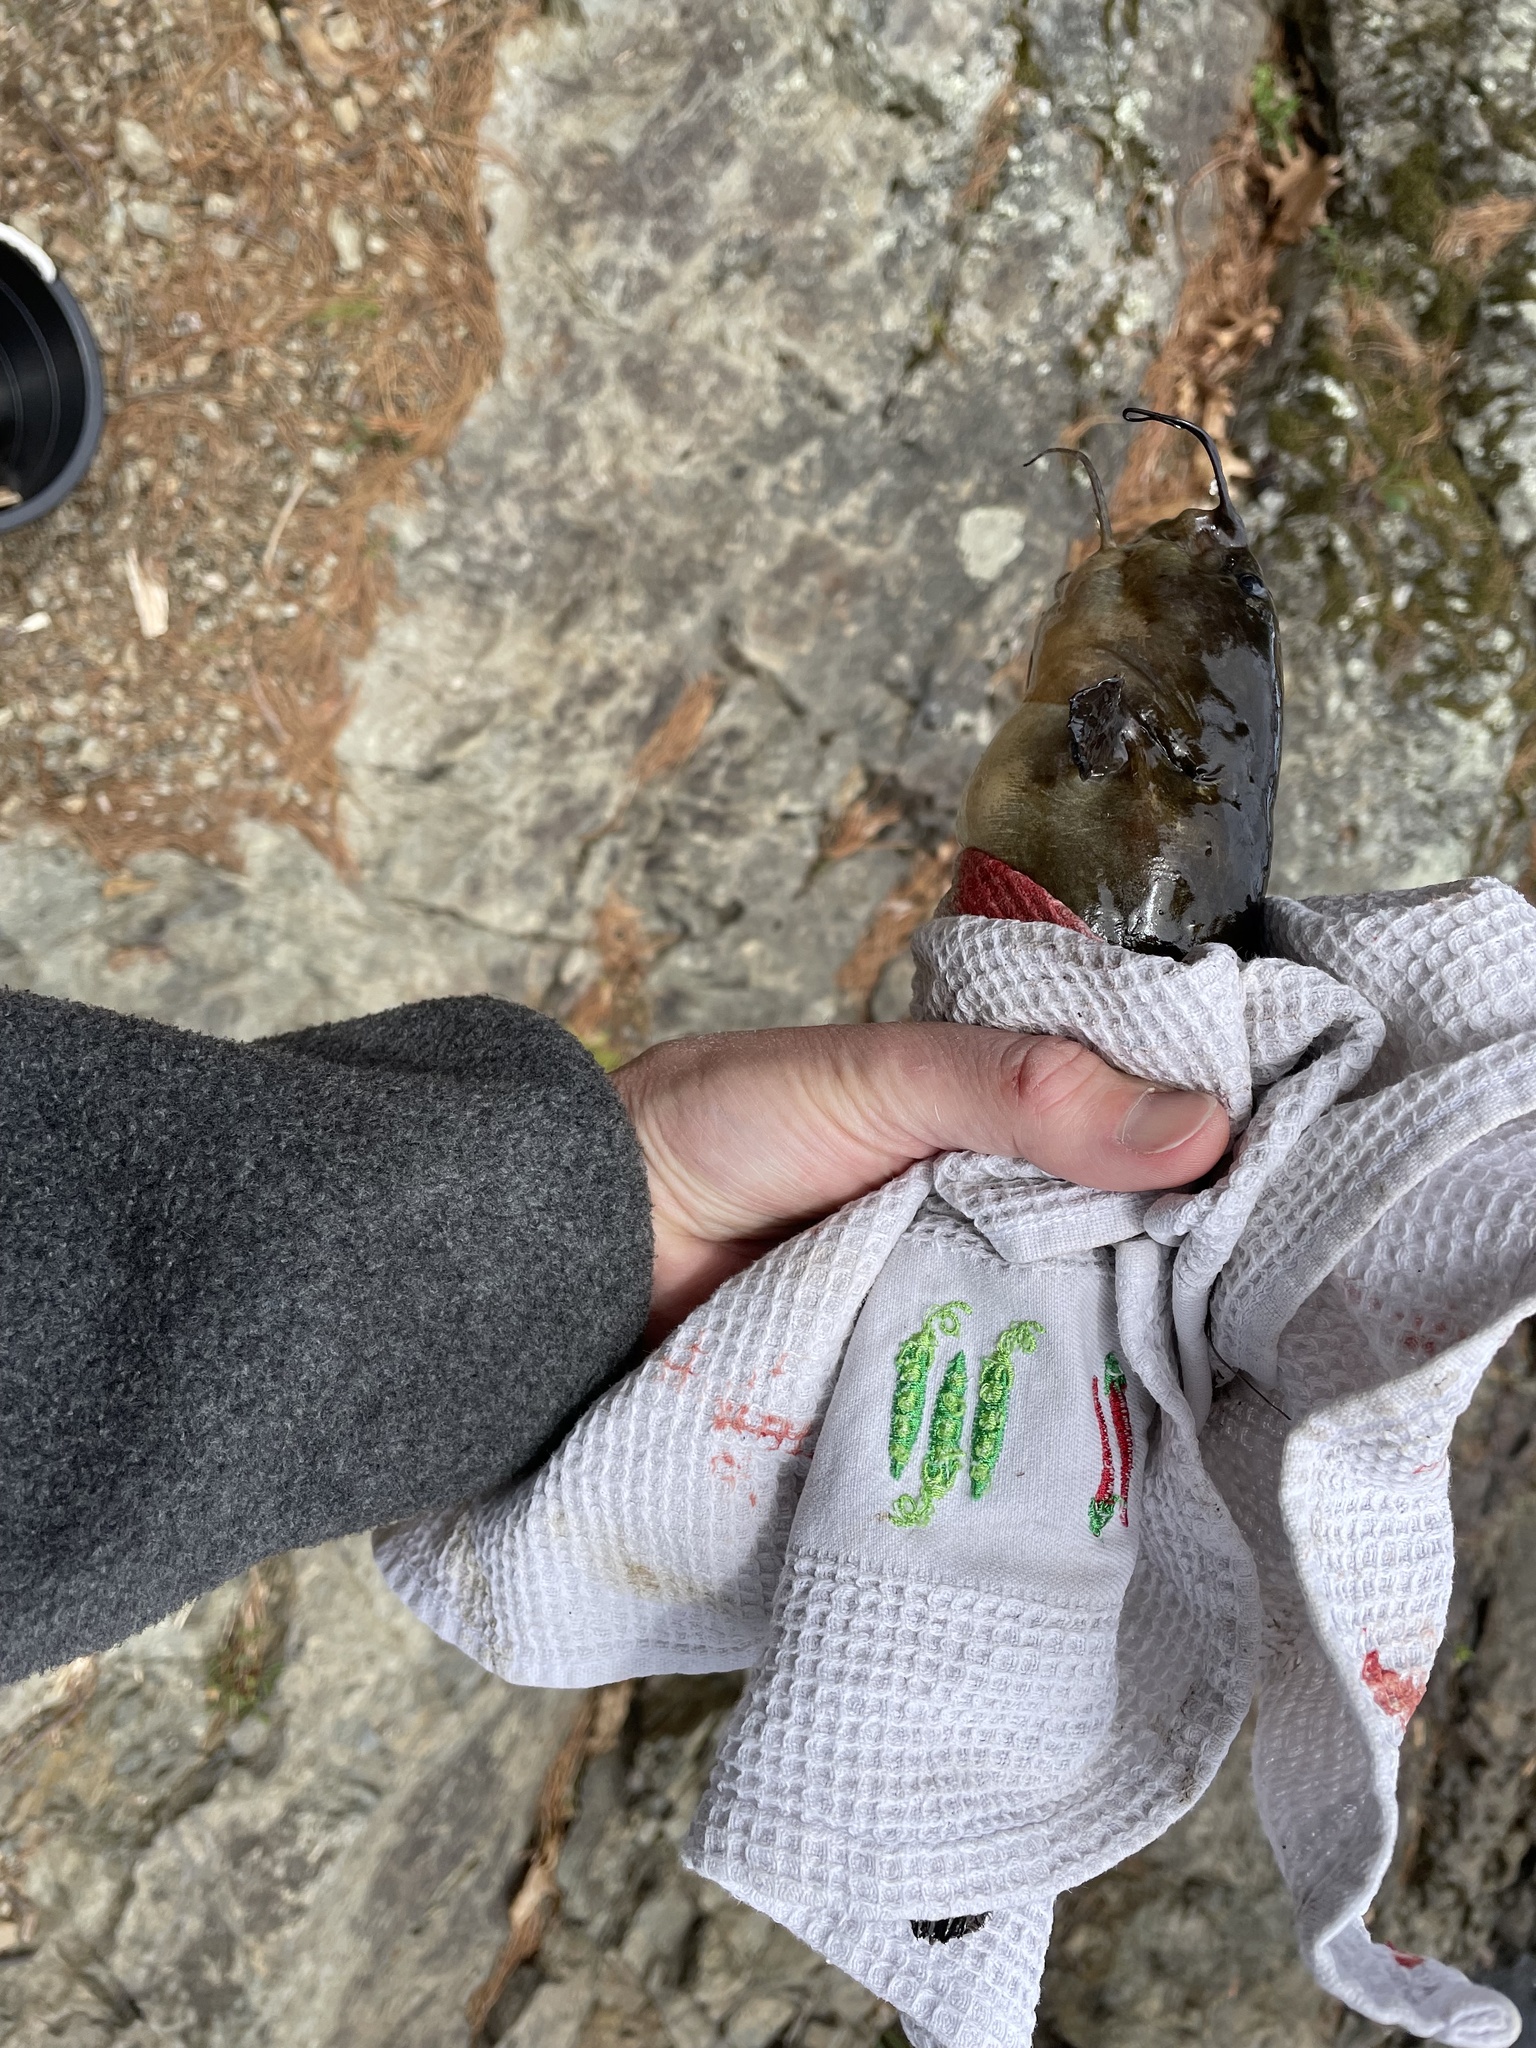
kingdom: Animalia
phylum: Chordata
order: Siluriformes
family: Ictaluridae
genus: Ameiurus
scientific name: Ameiurus natalis
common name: Yellow bullhead
